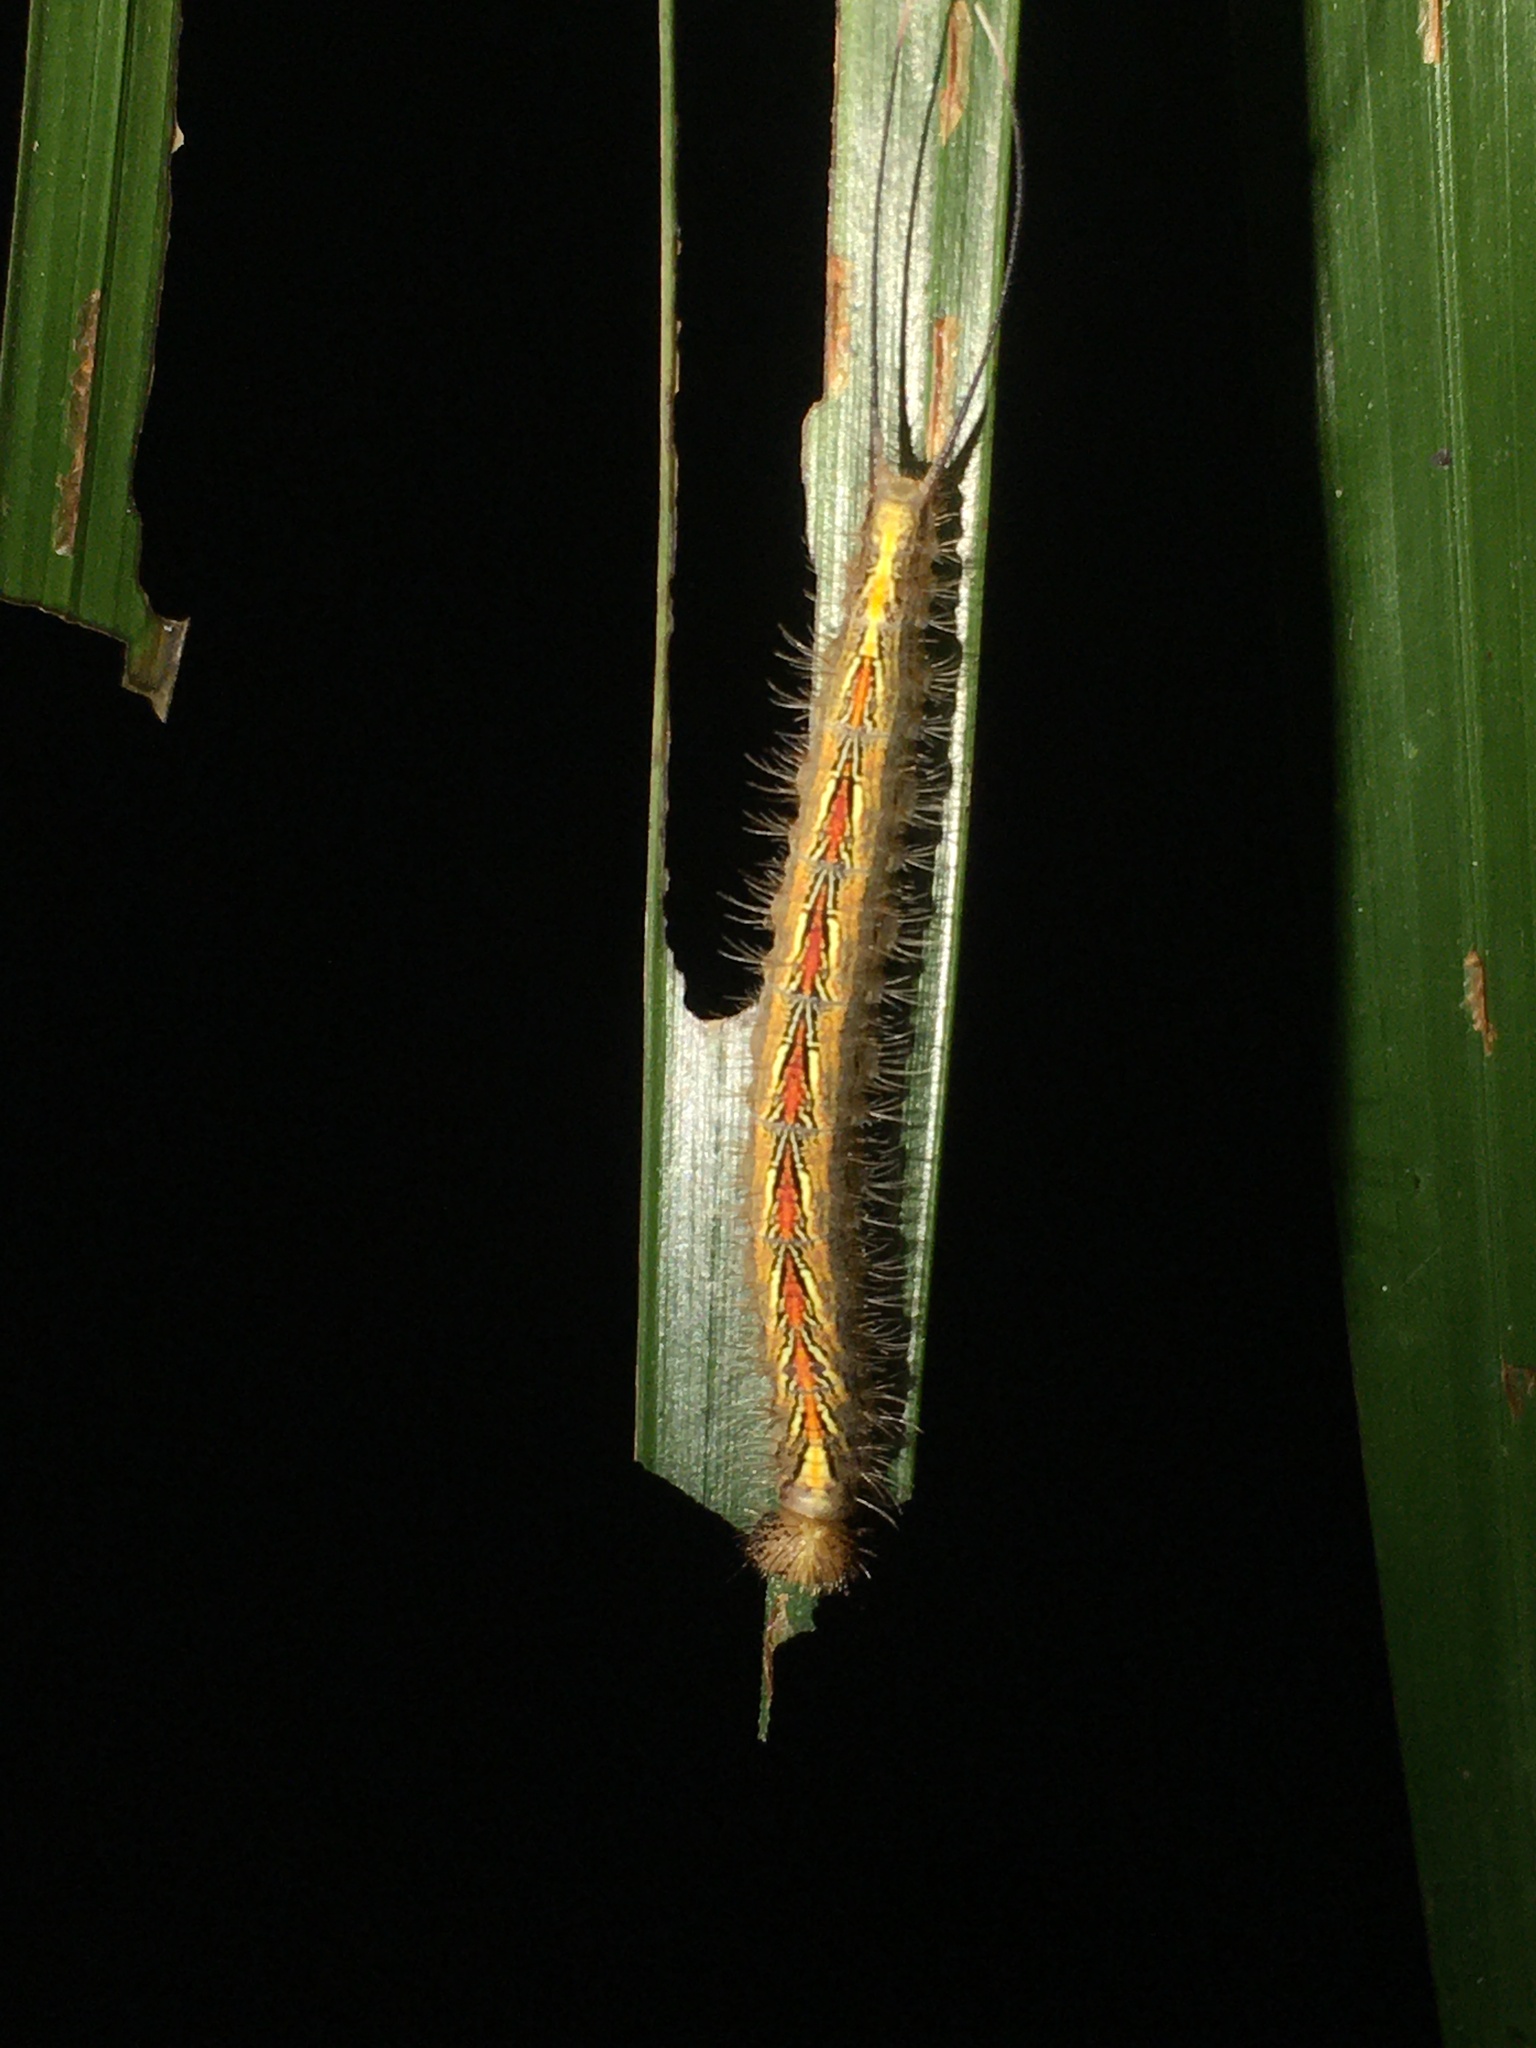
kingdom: Animalia
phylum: Arthropoda
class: Insecta
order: Lepidoptera
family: Nymphalidae
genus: Antirrhea
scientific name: Antirrhea archaea
